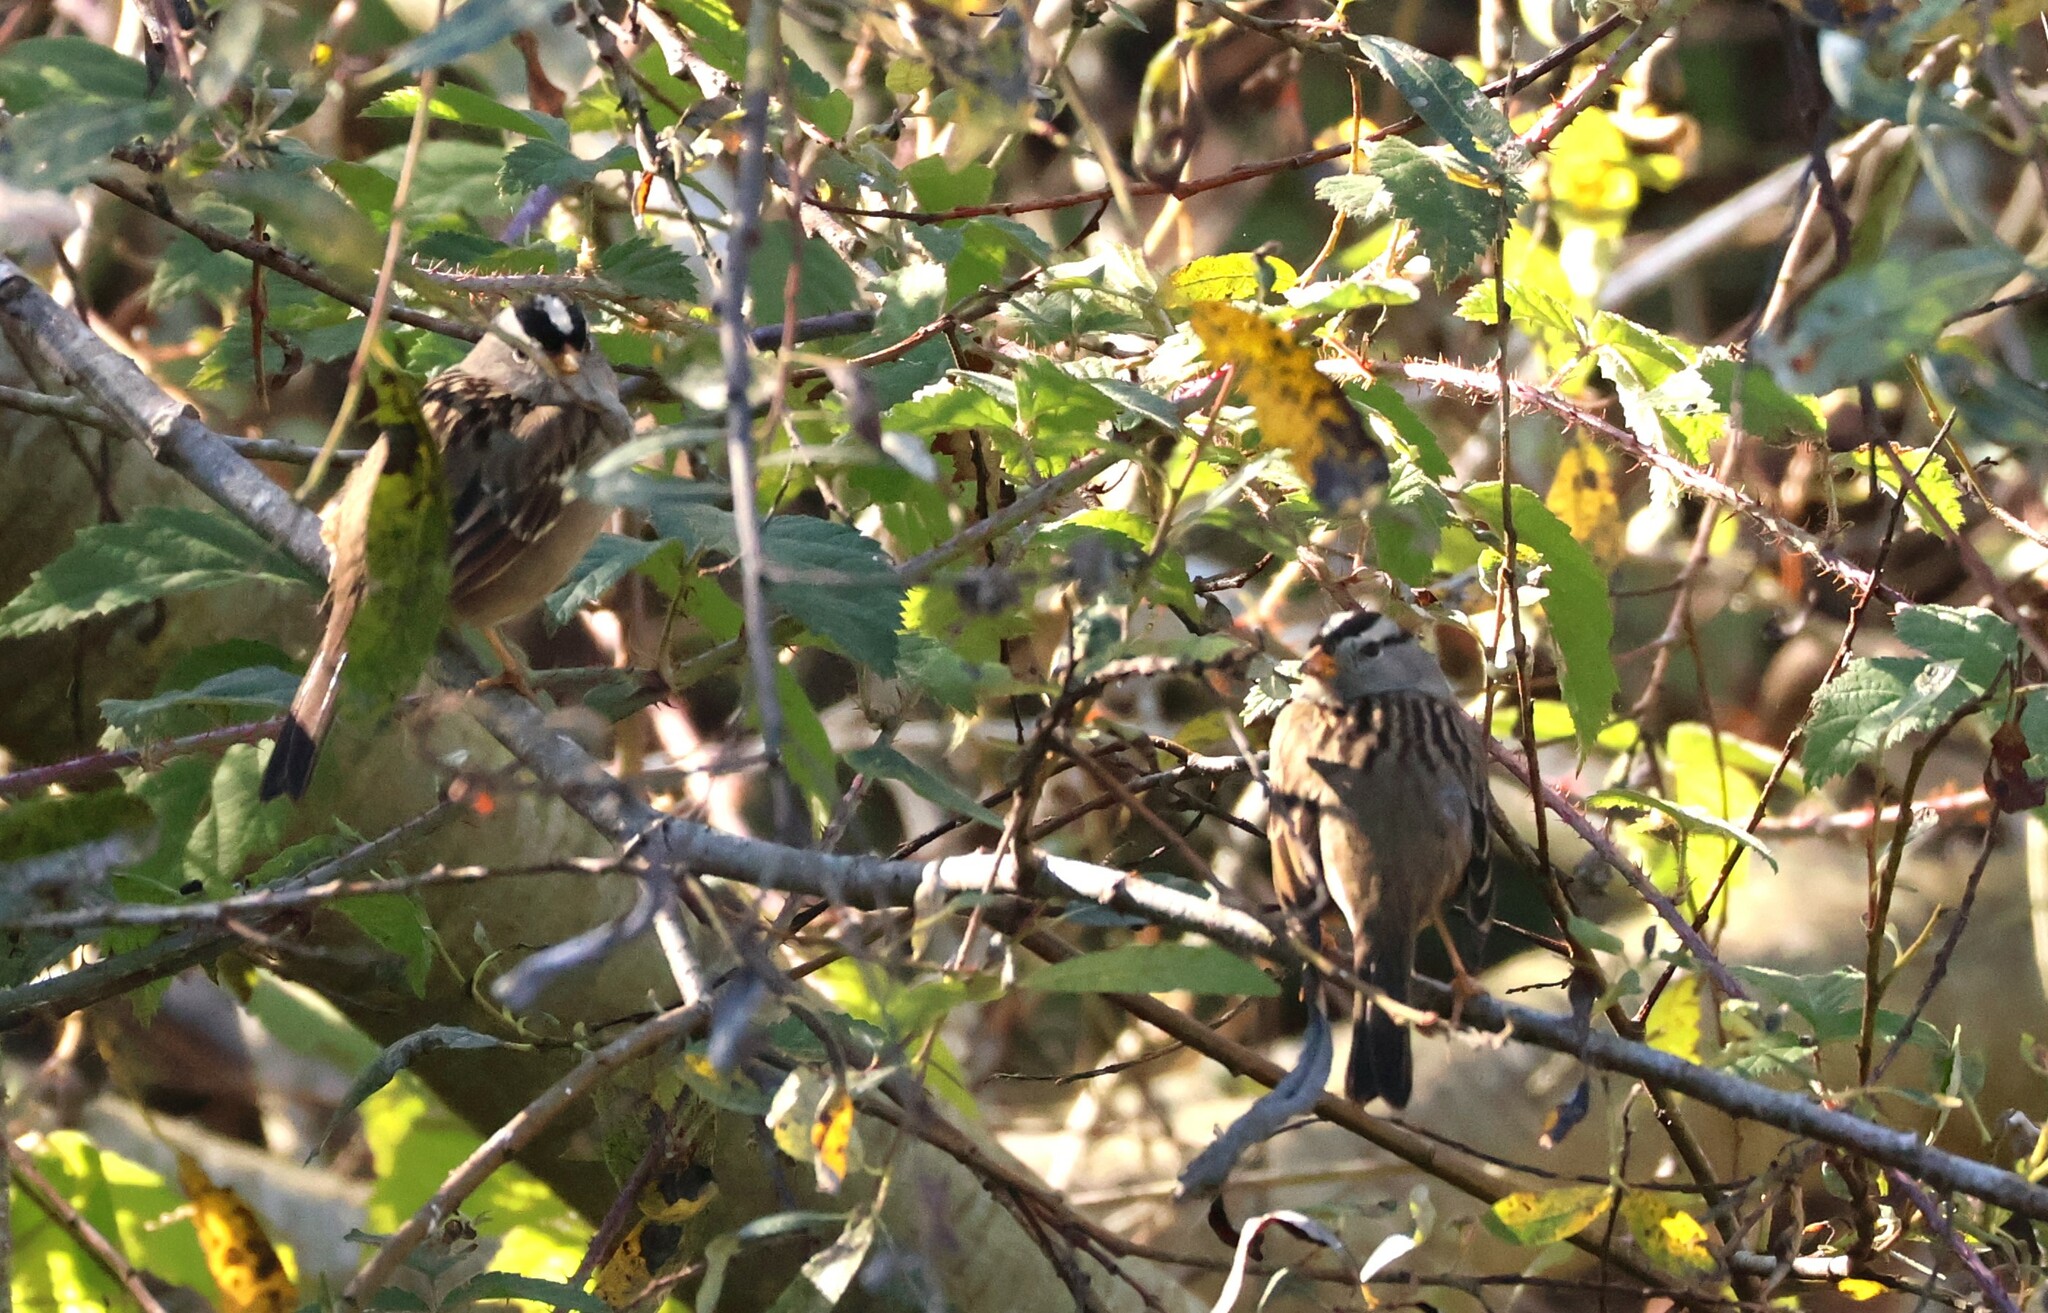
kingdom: Animalia
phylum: Chordata
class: Aves
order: Passeriformes
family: Passerellidae
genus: Zonotrichia
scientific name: Zonotrichia leucophrys
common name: White-crowned sparrow
